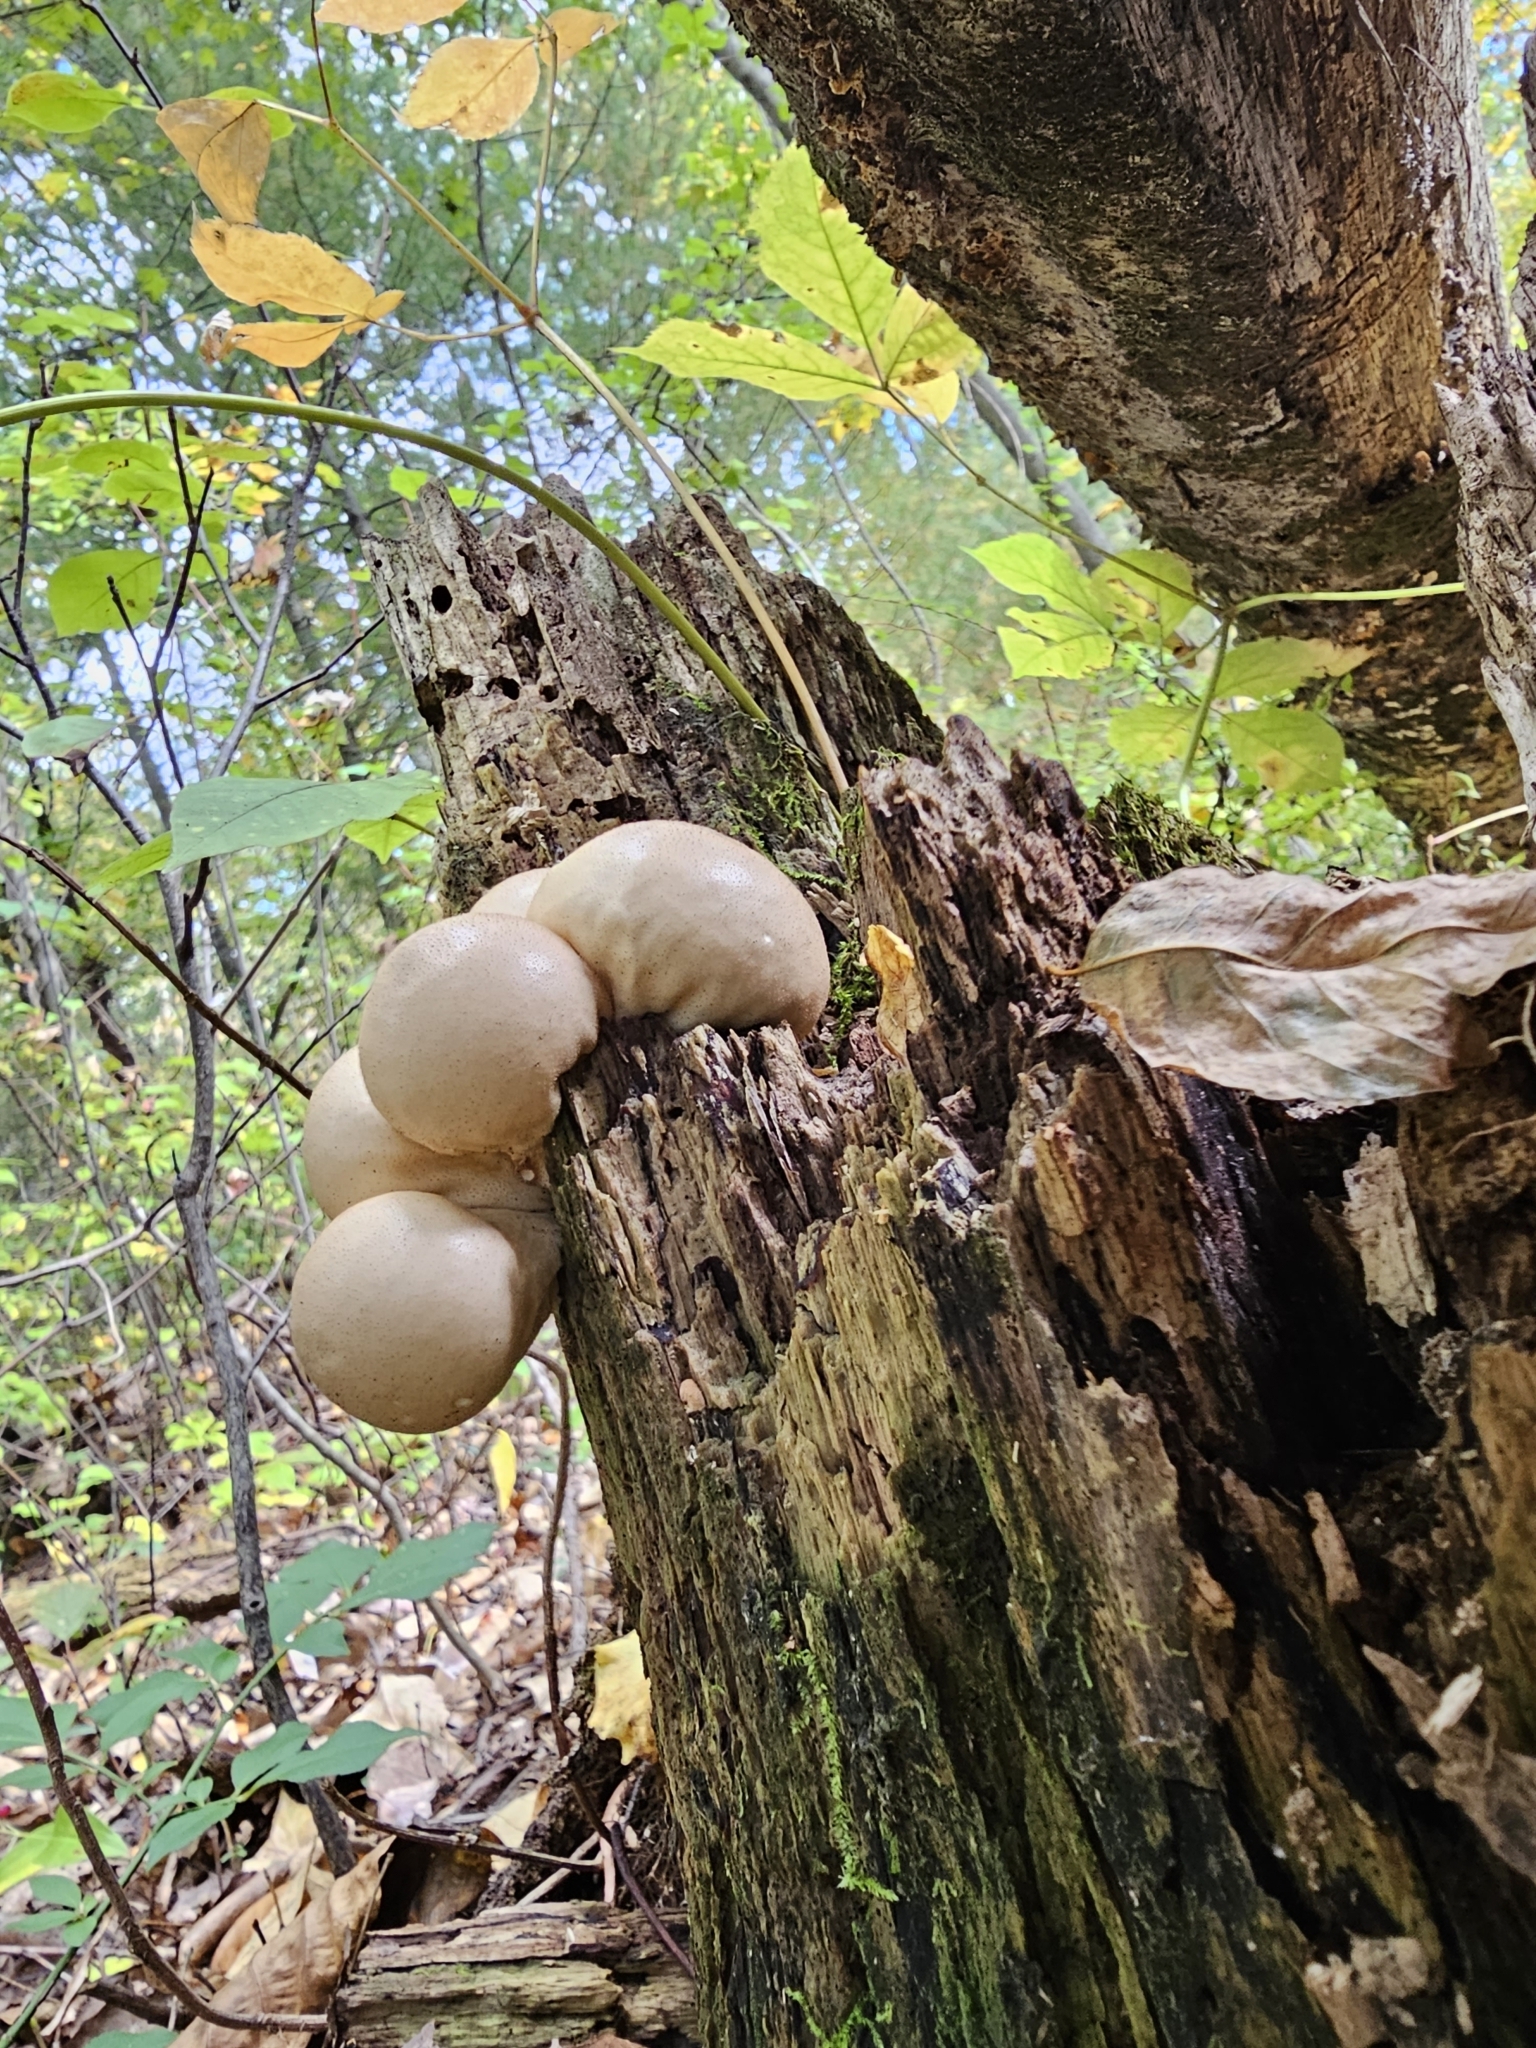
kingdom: Fungi
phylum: Basidiomycota
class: Agaricomycetes
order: Agaricales
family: Lycoperdaceae
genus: Apioperdon
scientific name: Apioperdon pyriforme
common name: Pear-shaped puffball
